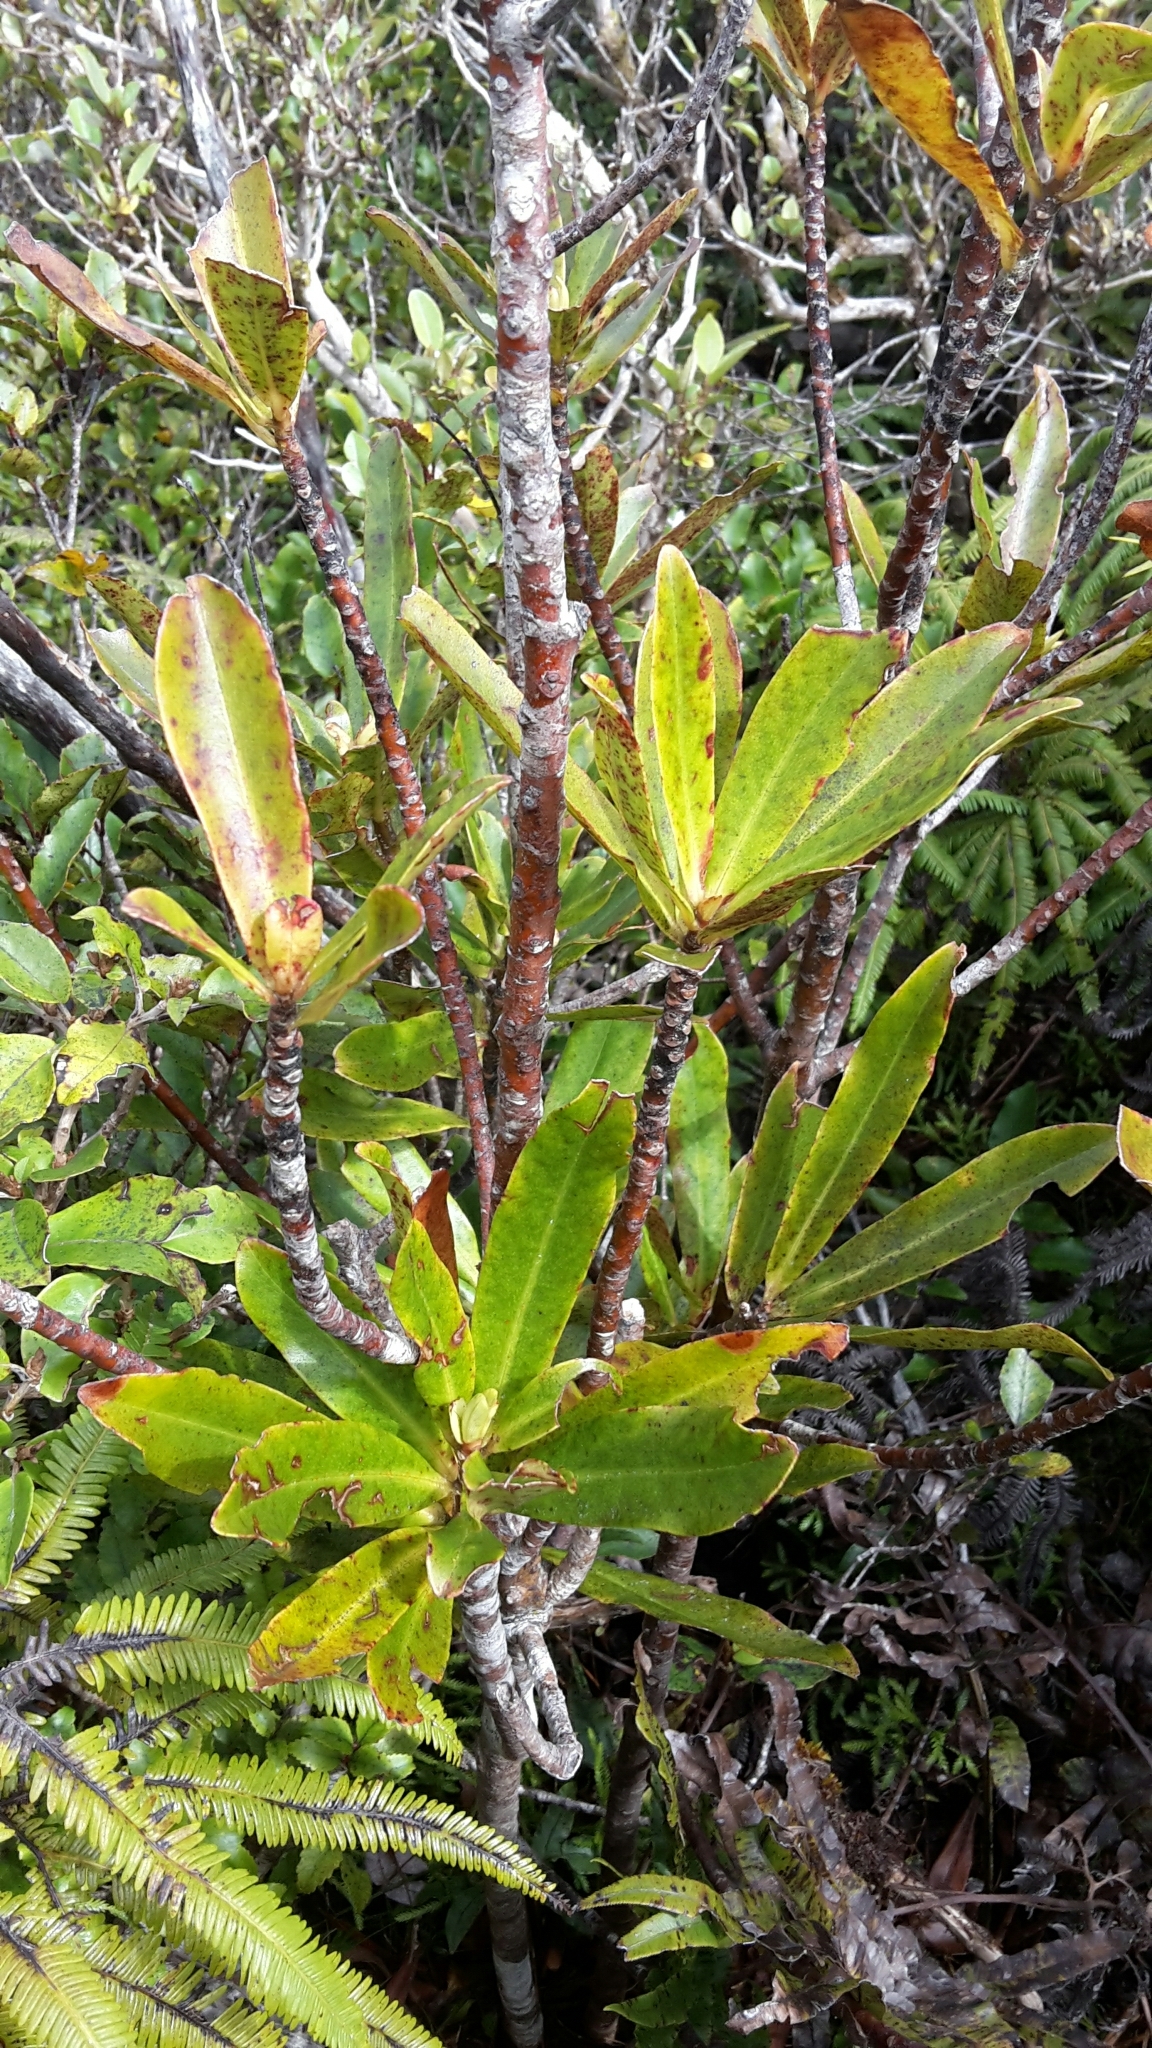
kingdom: Plantae
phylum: Tracheophyta
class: Magnoliopsida
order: Ericales
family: Primulaceae
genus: Myrsine
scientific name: Myrsine salicina
